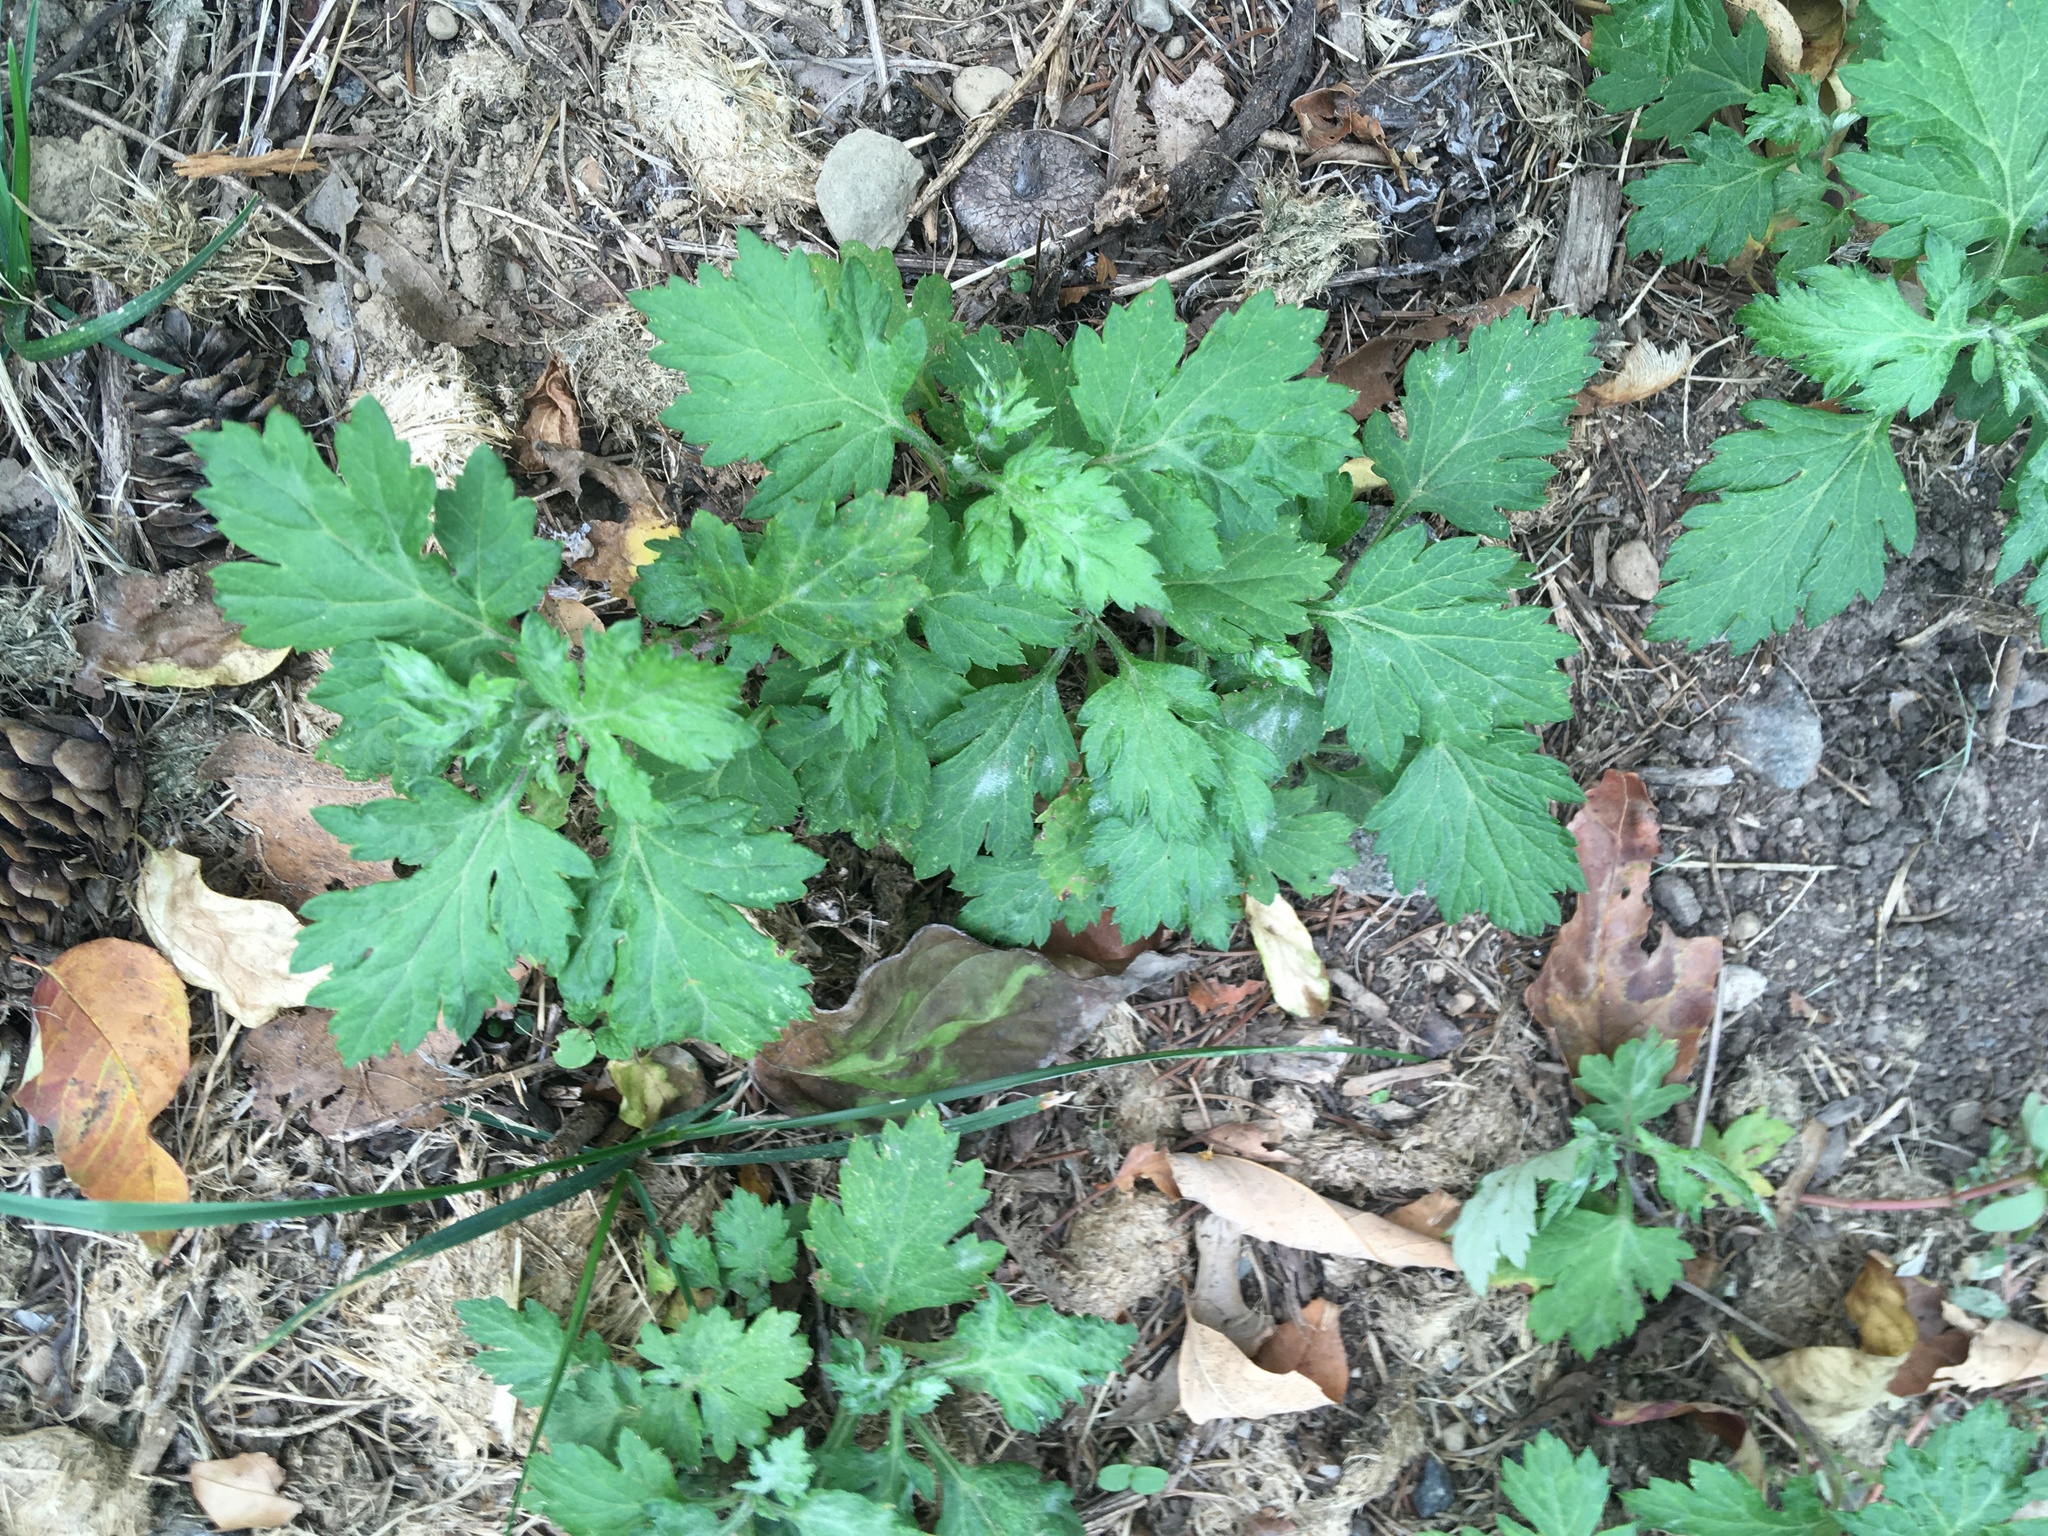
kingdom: Plantae
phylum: Tracheophyta
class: Magnoliopsida
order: Asterales
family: Asteraceae
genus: Artemisia
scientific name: Artemisia vulgaris
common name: Mugwort
